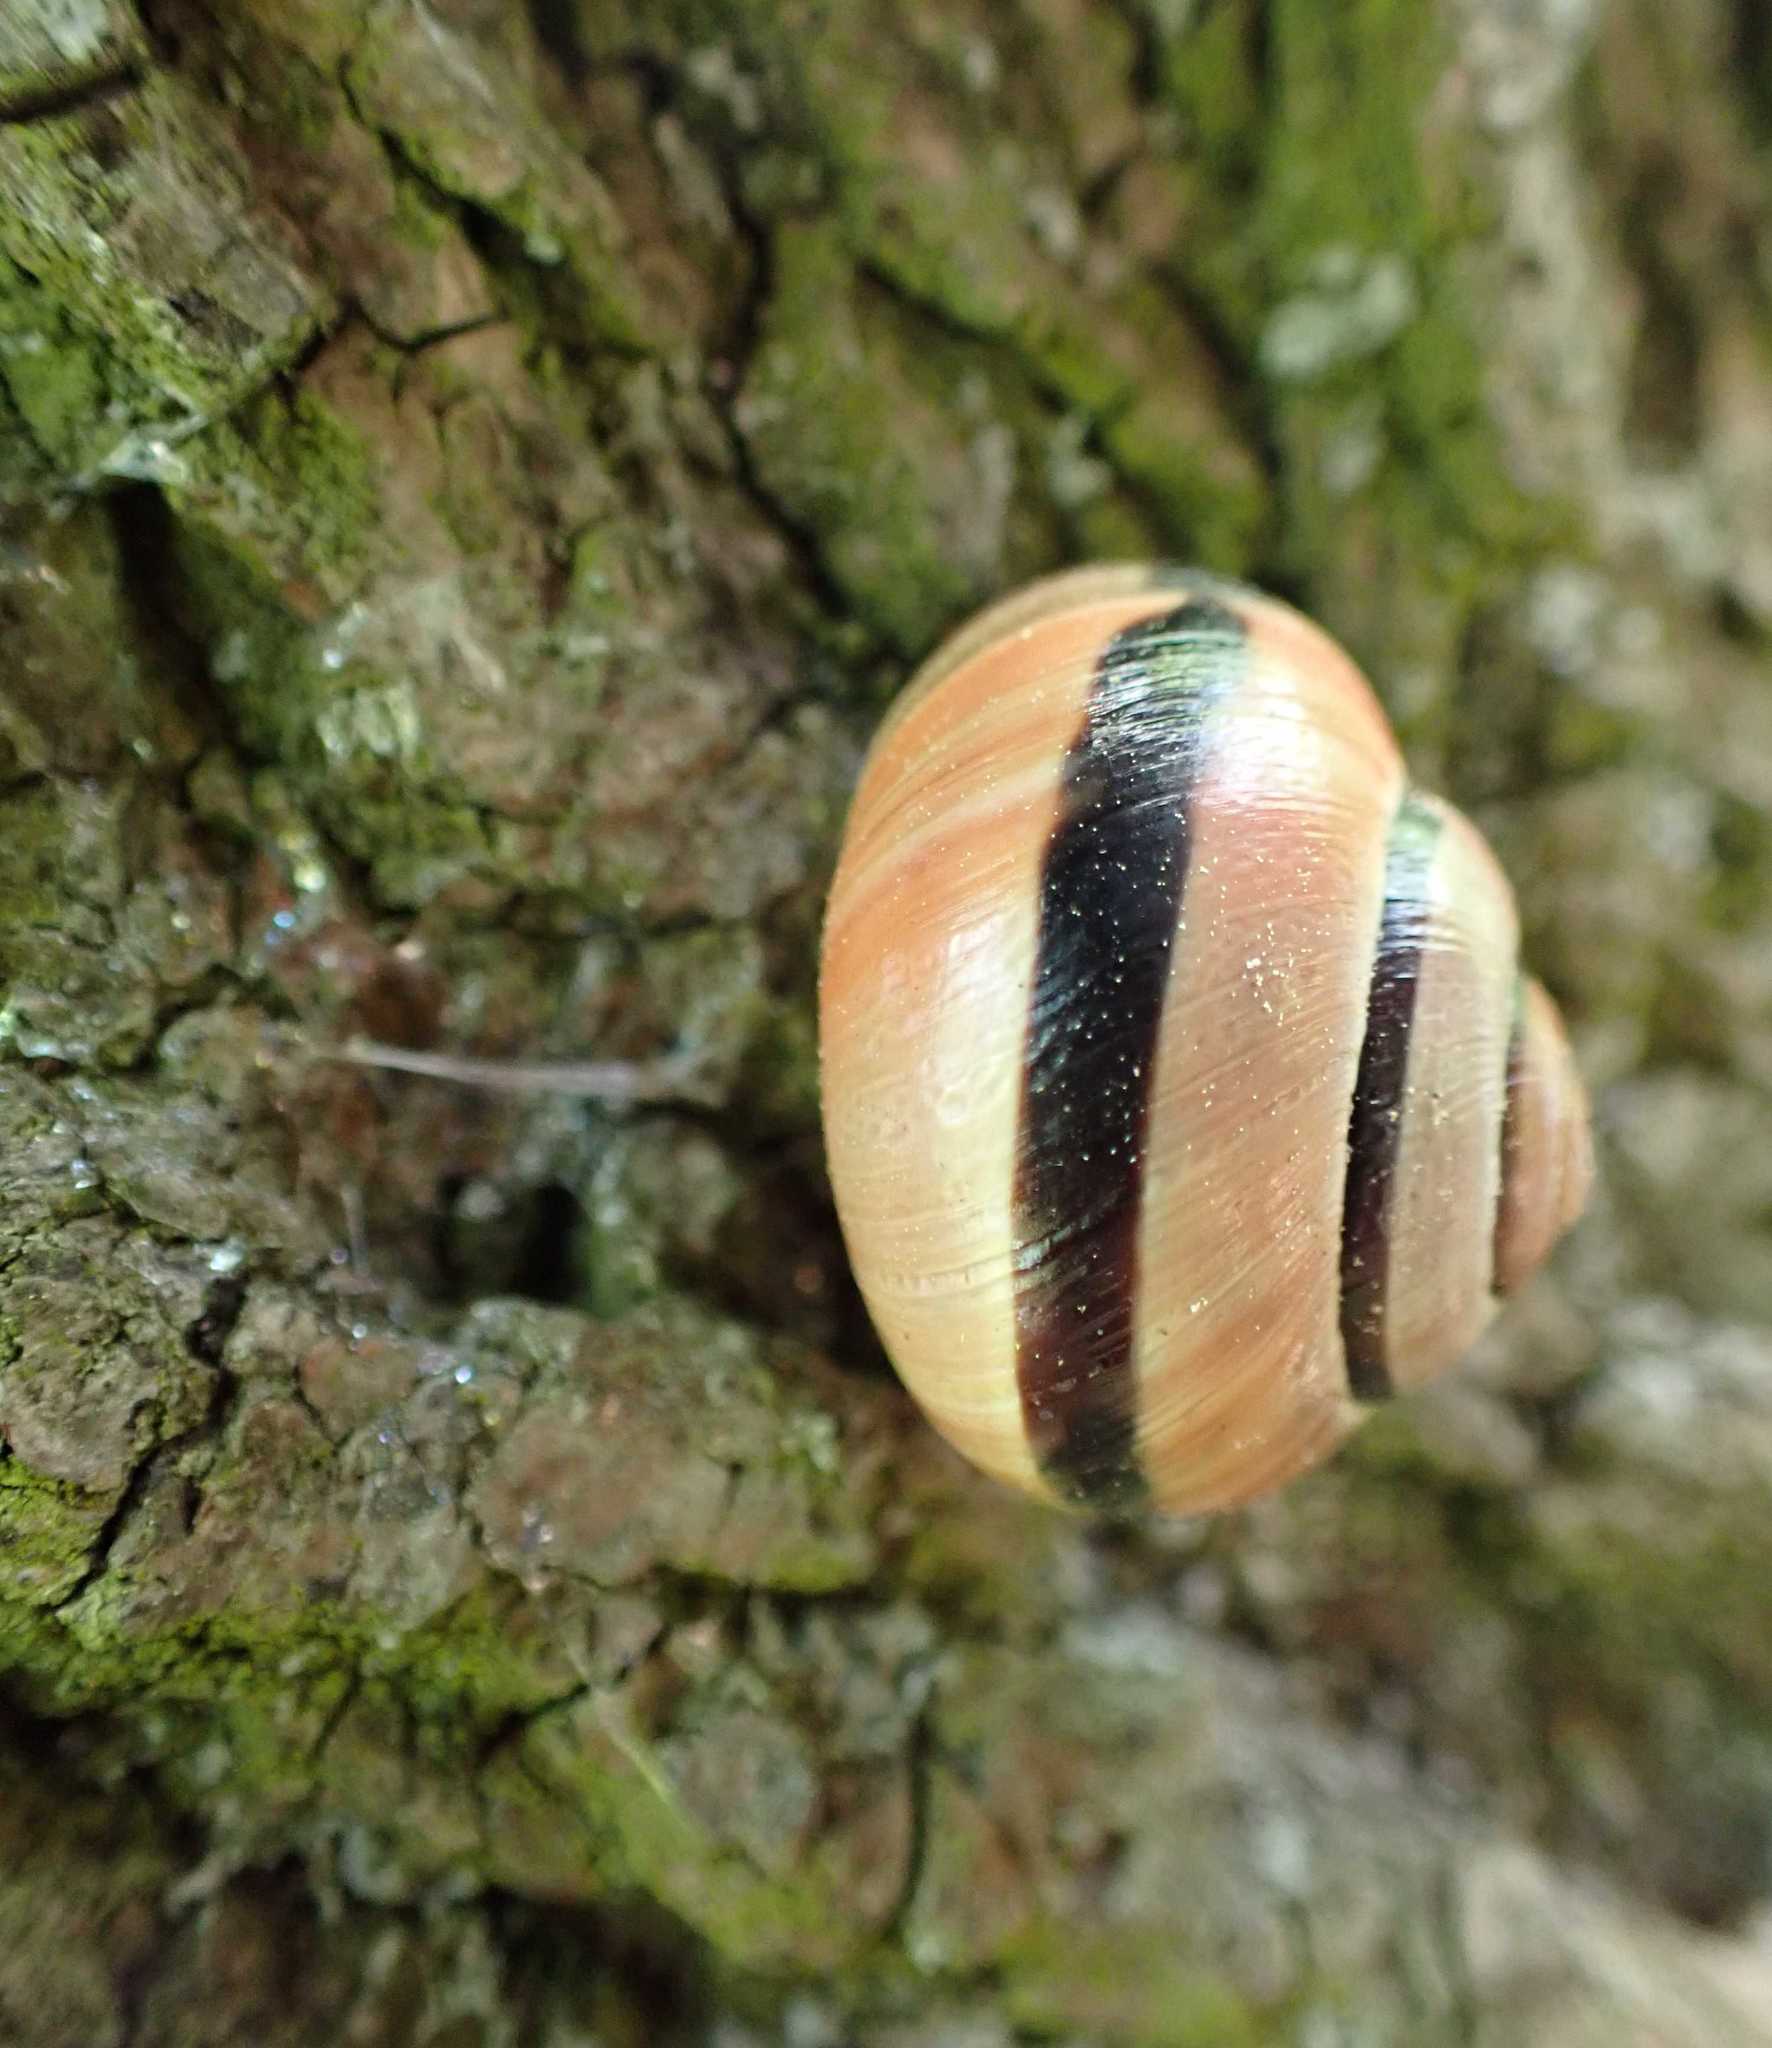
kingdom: Animalia
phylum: Mollusca
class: Gastropoda
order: Stylommatophora
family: Helicidae
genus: Cepaea
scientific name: Cepaea nemoralis
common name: Grovesnail
